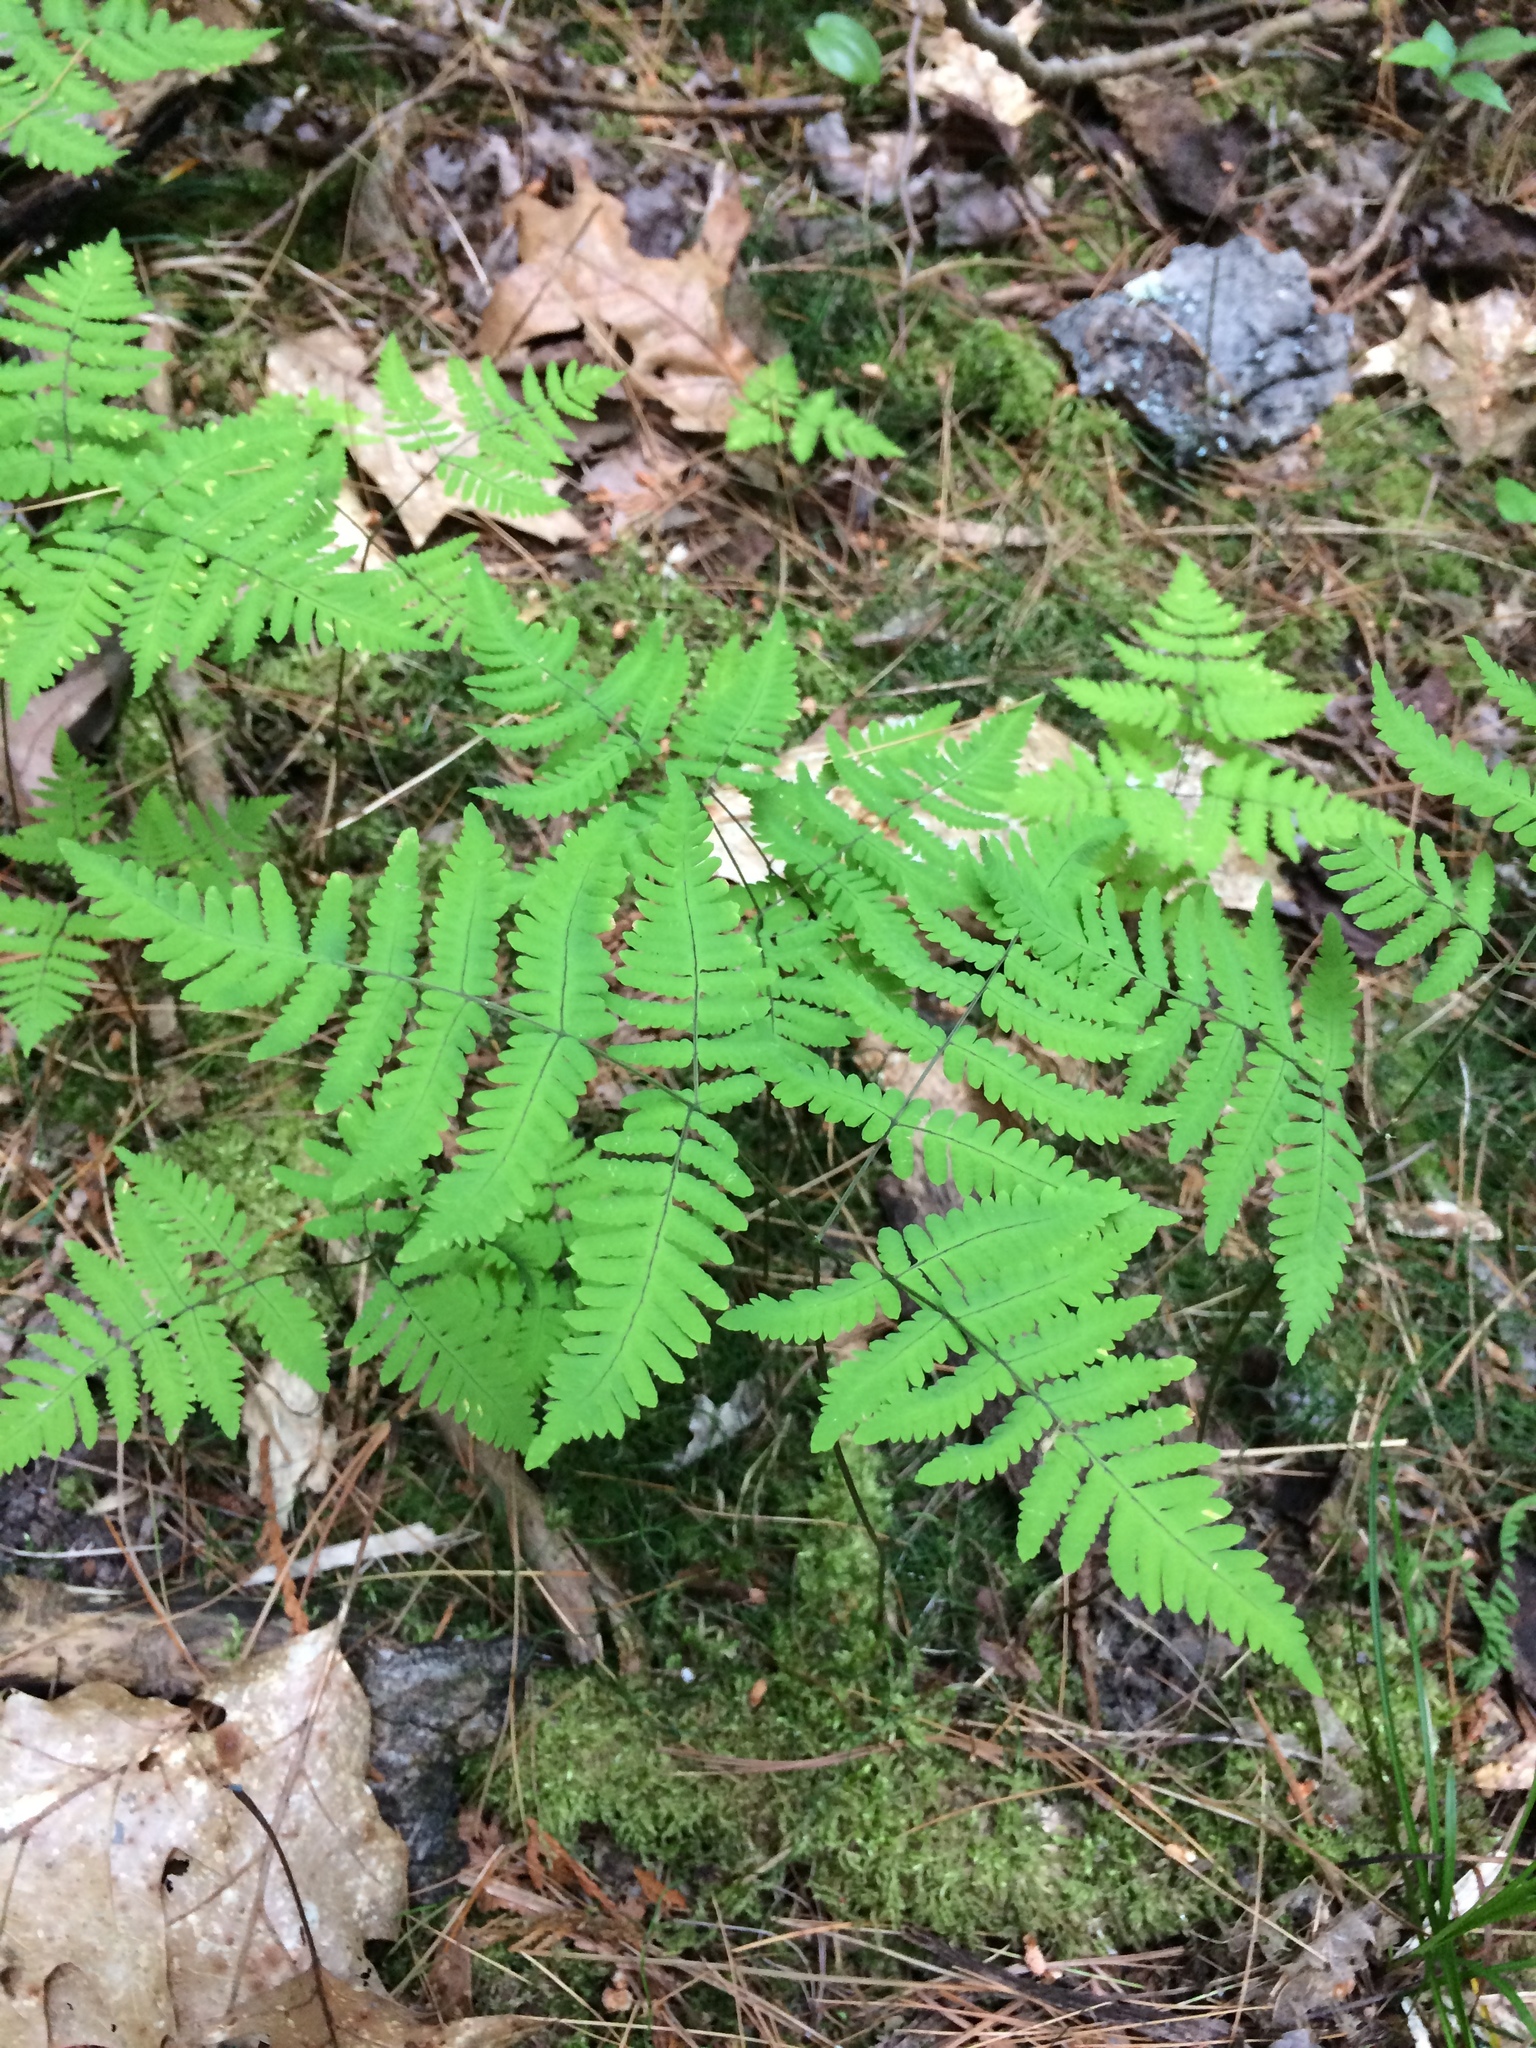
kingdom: Plantae
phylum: Tracheophyta
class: Polypodiopsida
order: Polypodiales
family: Cystopteridaceae
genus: Gymnocarpium
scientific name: Gymnocarpium dryopteris
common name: Oak fern
